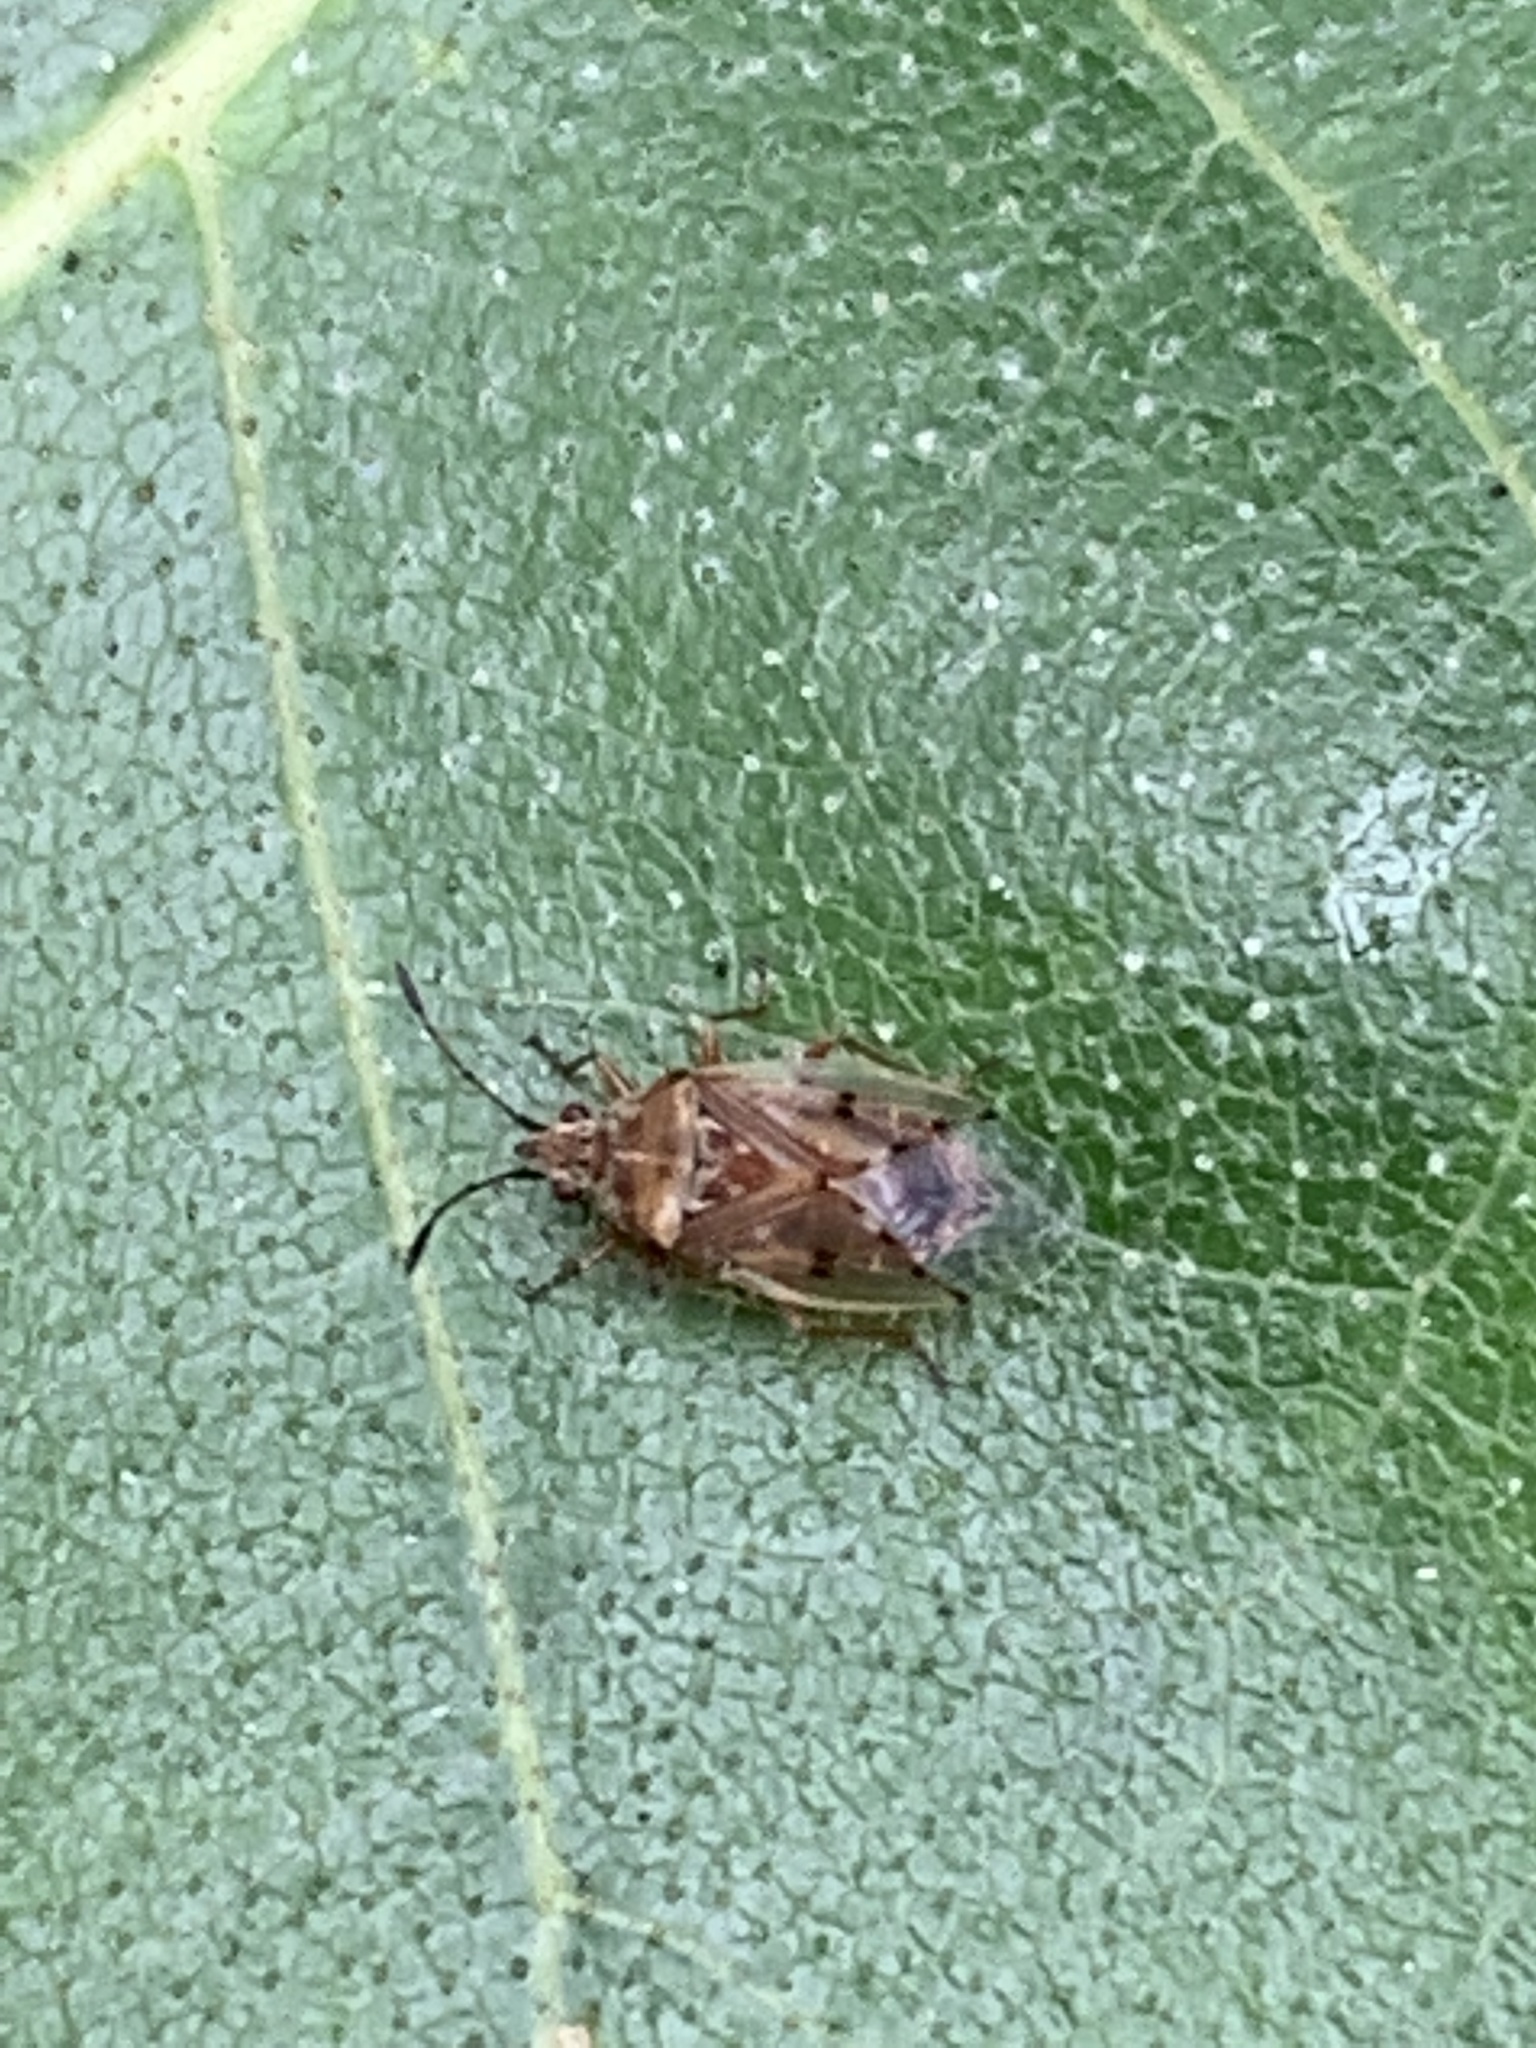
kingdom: Animalia
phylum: Arthropoda
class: Insecta
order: Hemiptera
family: Lygaeidae
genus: Kleidocerys
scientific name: Kleidocerys resedae
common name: Birch catkin bug
